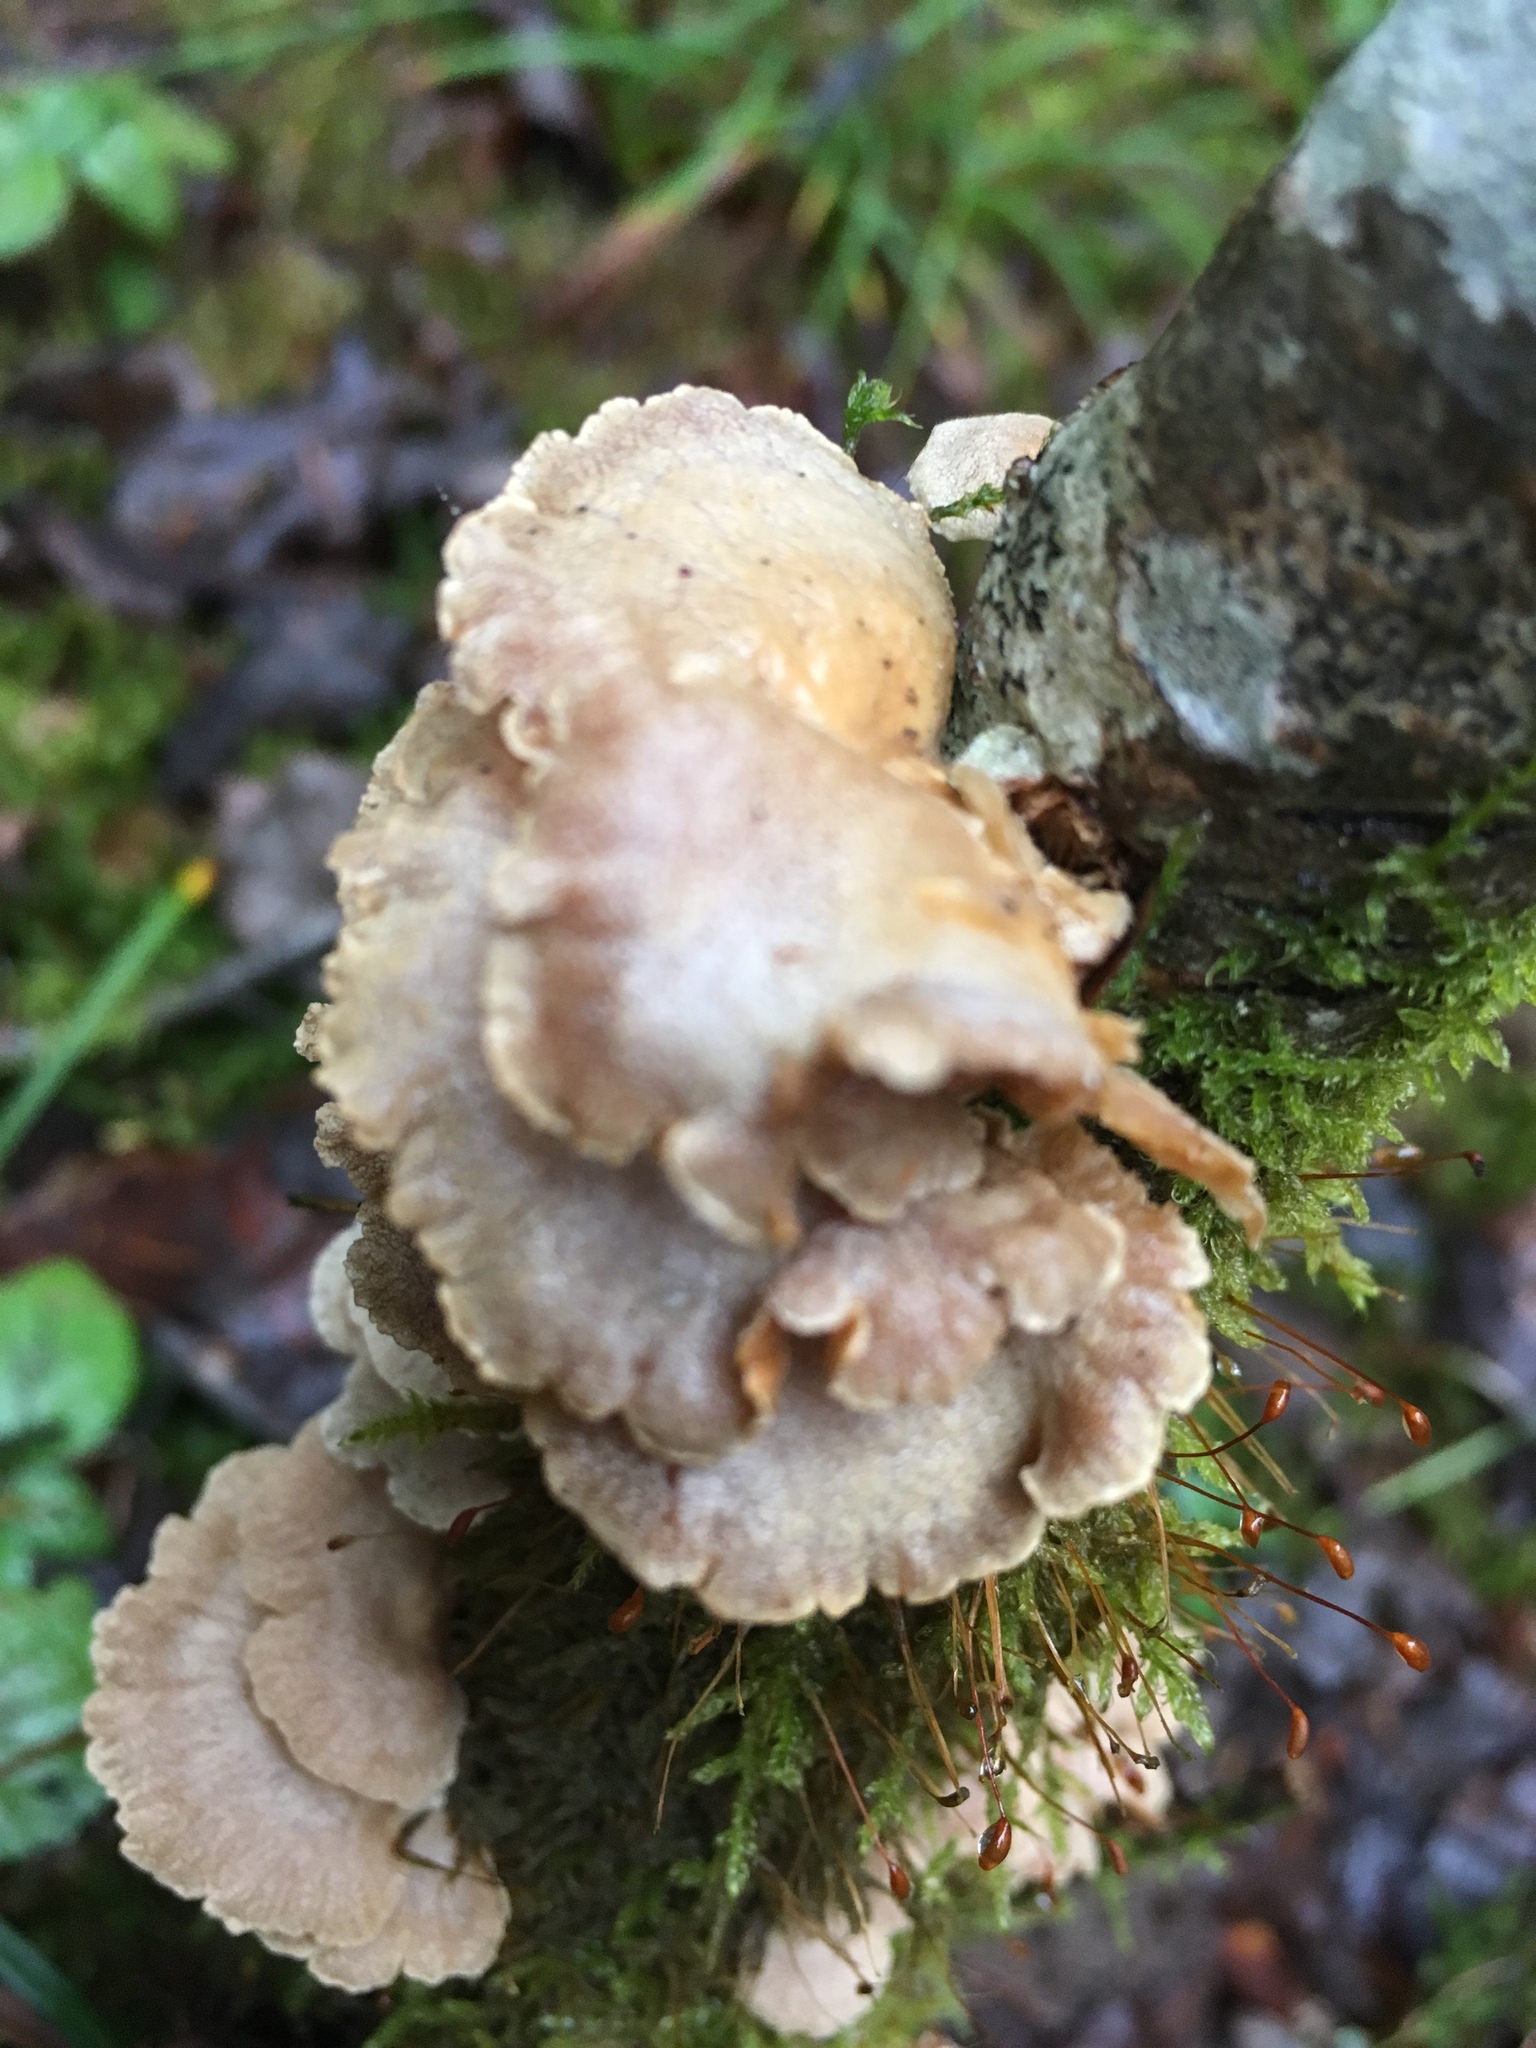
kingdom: Fungi
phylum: Basidiomycota
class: Agaricomycetes
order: Agaricales
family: Mycenaceae
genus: Panellus
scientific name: Panellus stipticus
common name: Bitter oysterling
